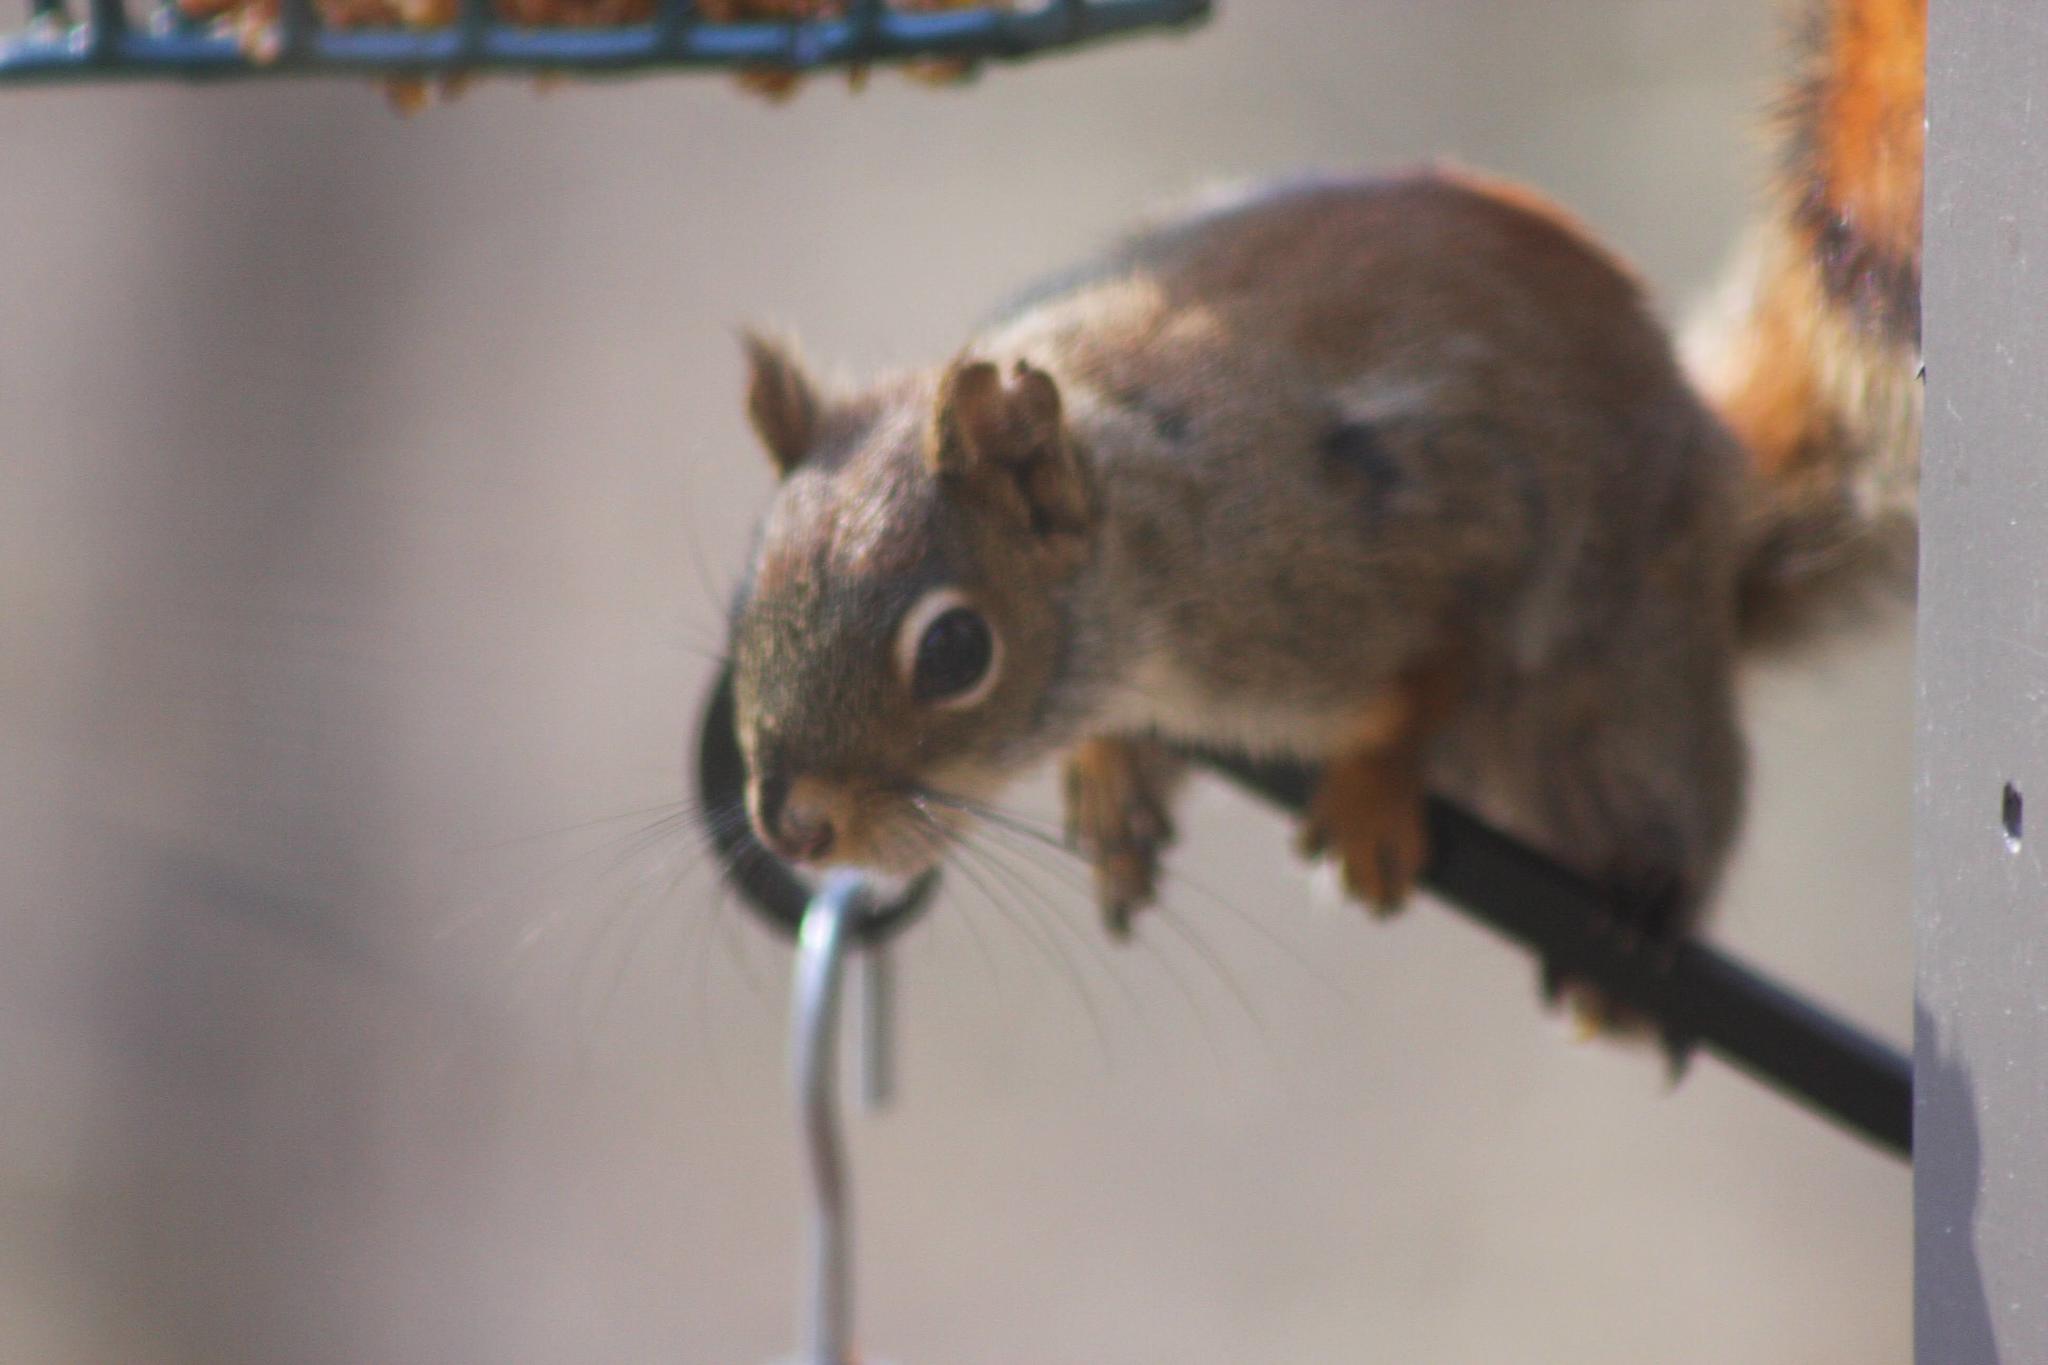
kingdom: Animalia
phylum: Chordata
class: Mammalia
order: Rodentia
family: Sciuridae
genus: Tamiasciurus
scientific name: Tamiasciurus hudsonicus
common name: Red squirrel
